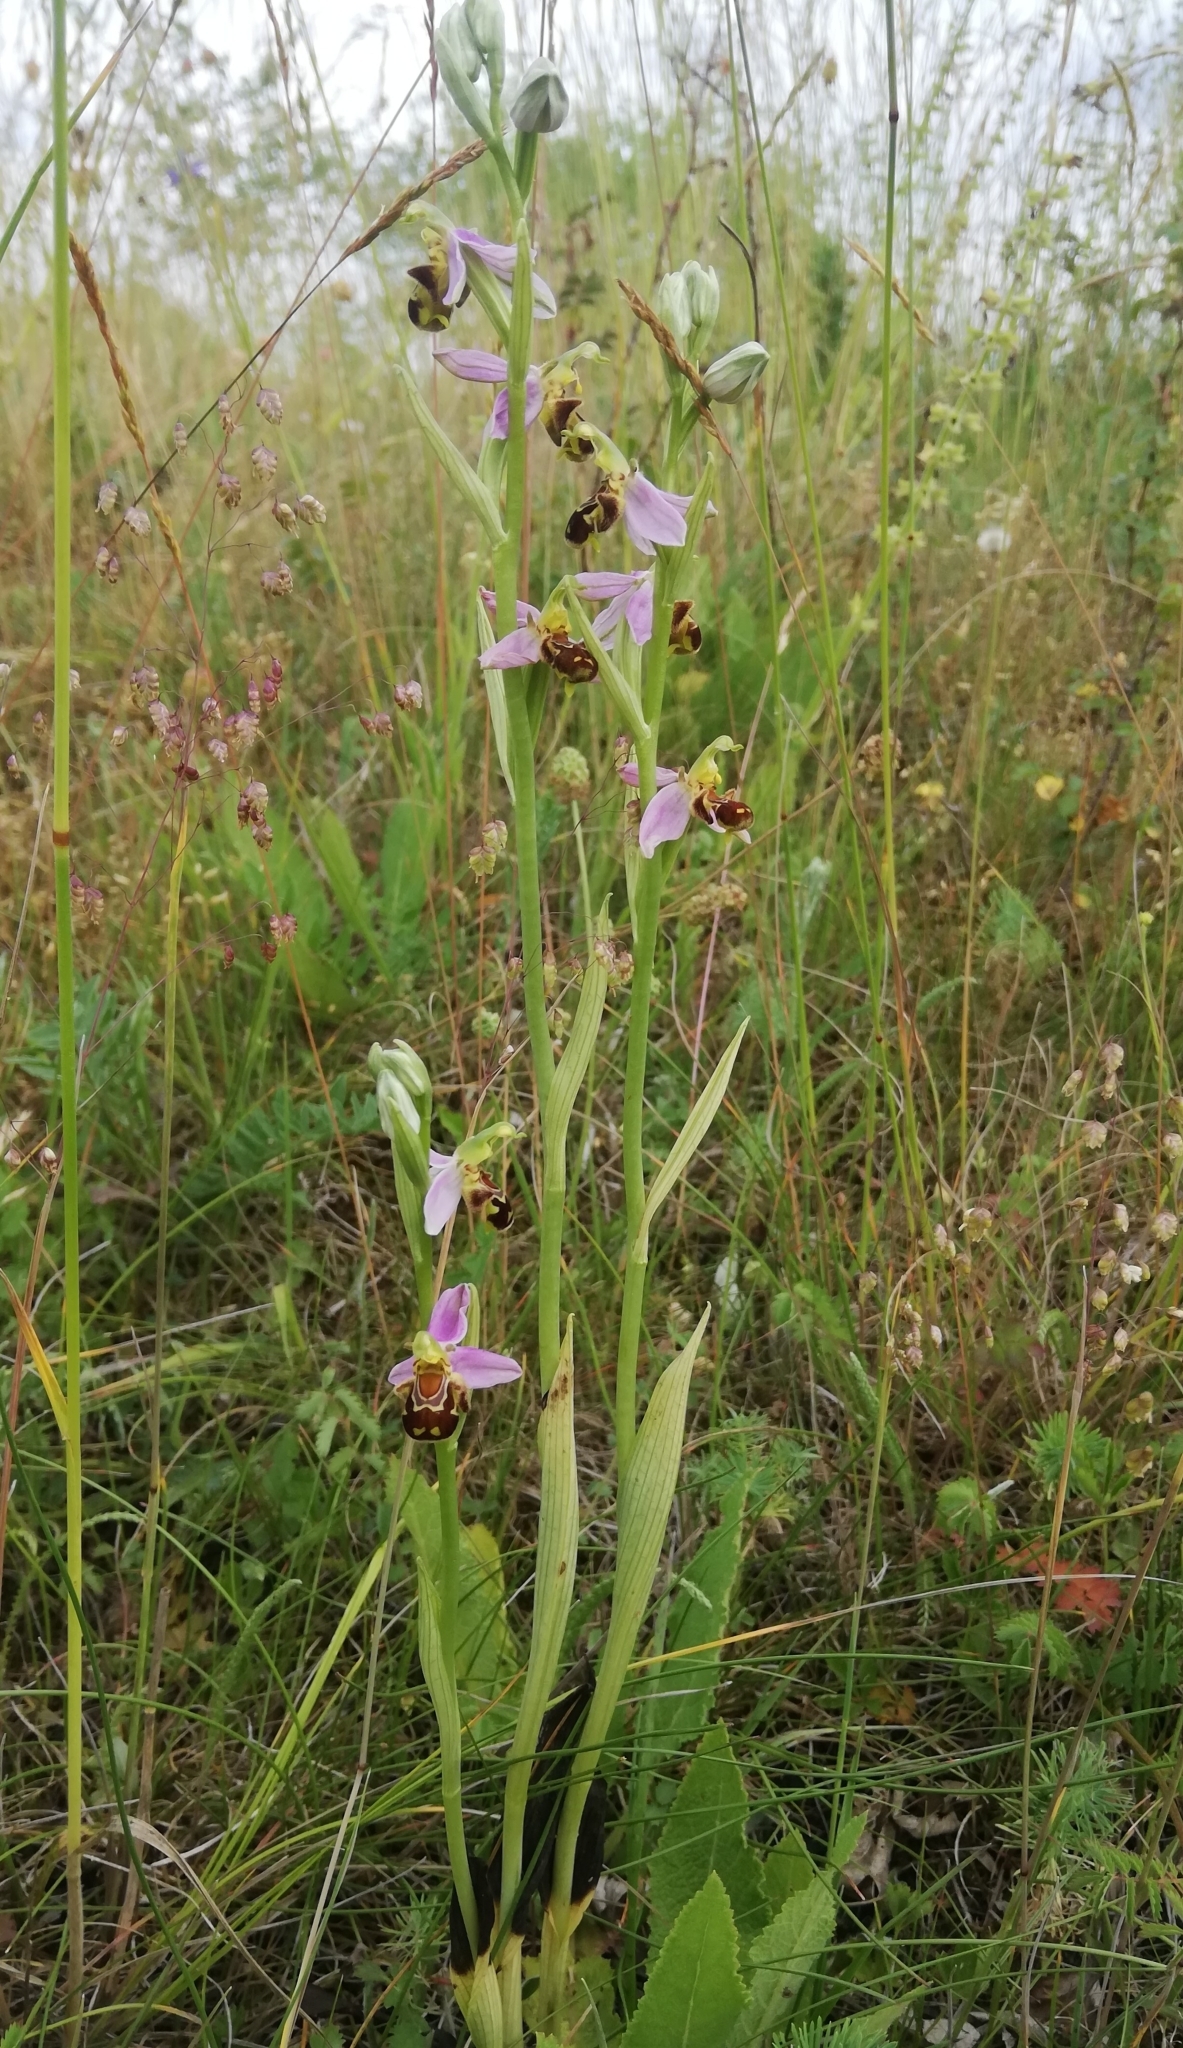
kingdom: Plantae
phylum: Tracheophyta
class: Liliopsida
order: Asparagales
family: Orchidaceae
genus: Ophrys
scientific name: Ophrys apifera
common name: Bee orchid
